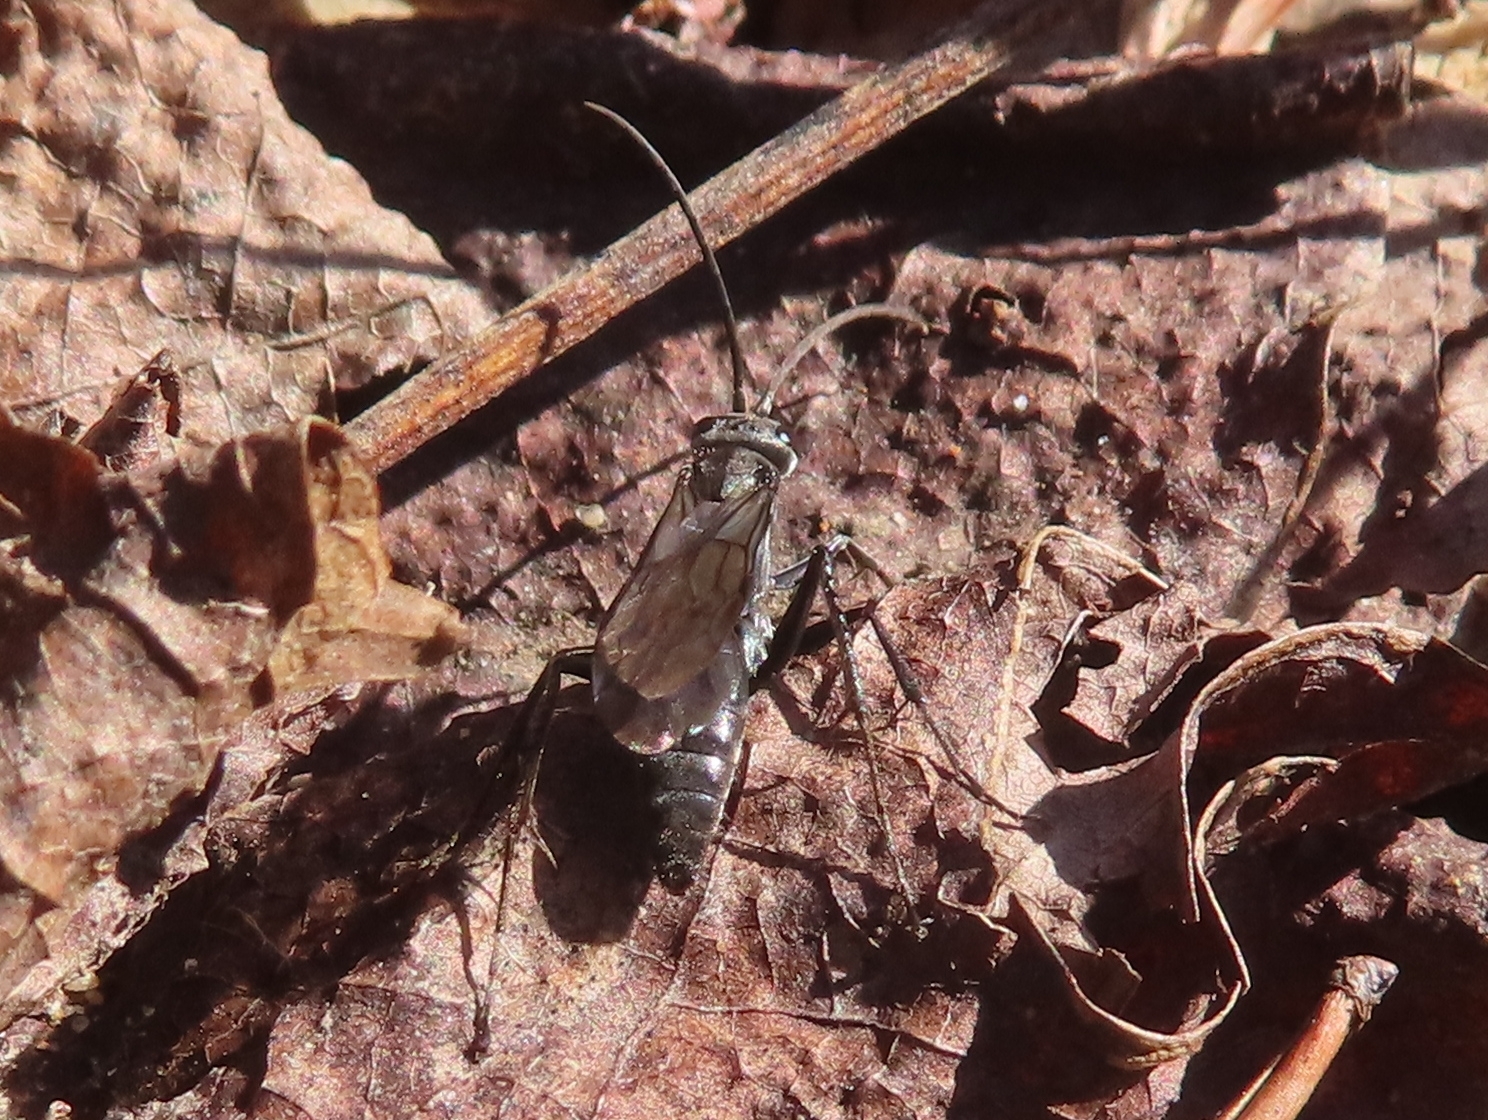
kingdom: Animalia
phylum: Arthropoda
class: Insecta
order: Hymenoptera
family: Pompilidae
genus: Priocnemis
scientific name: Priocnemis minorata
